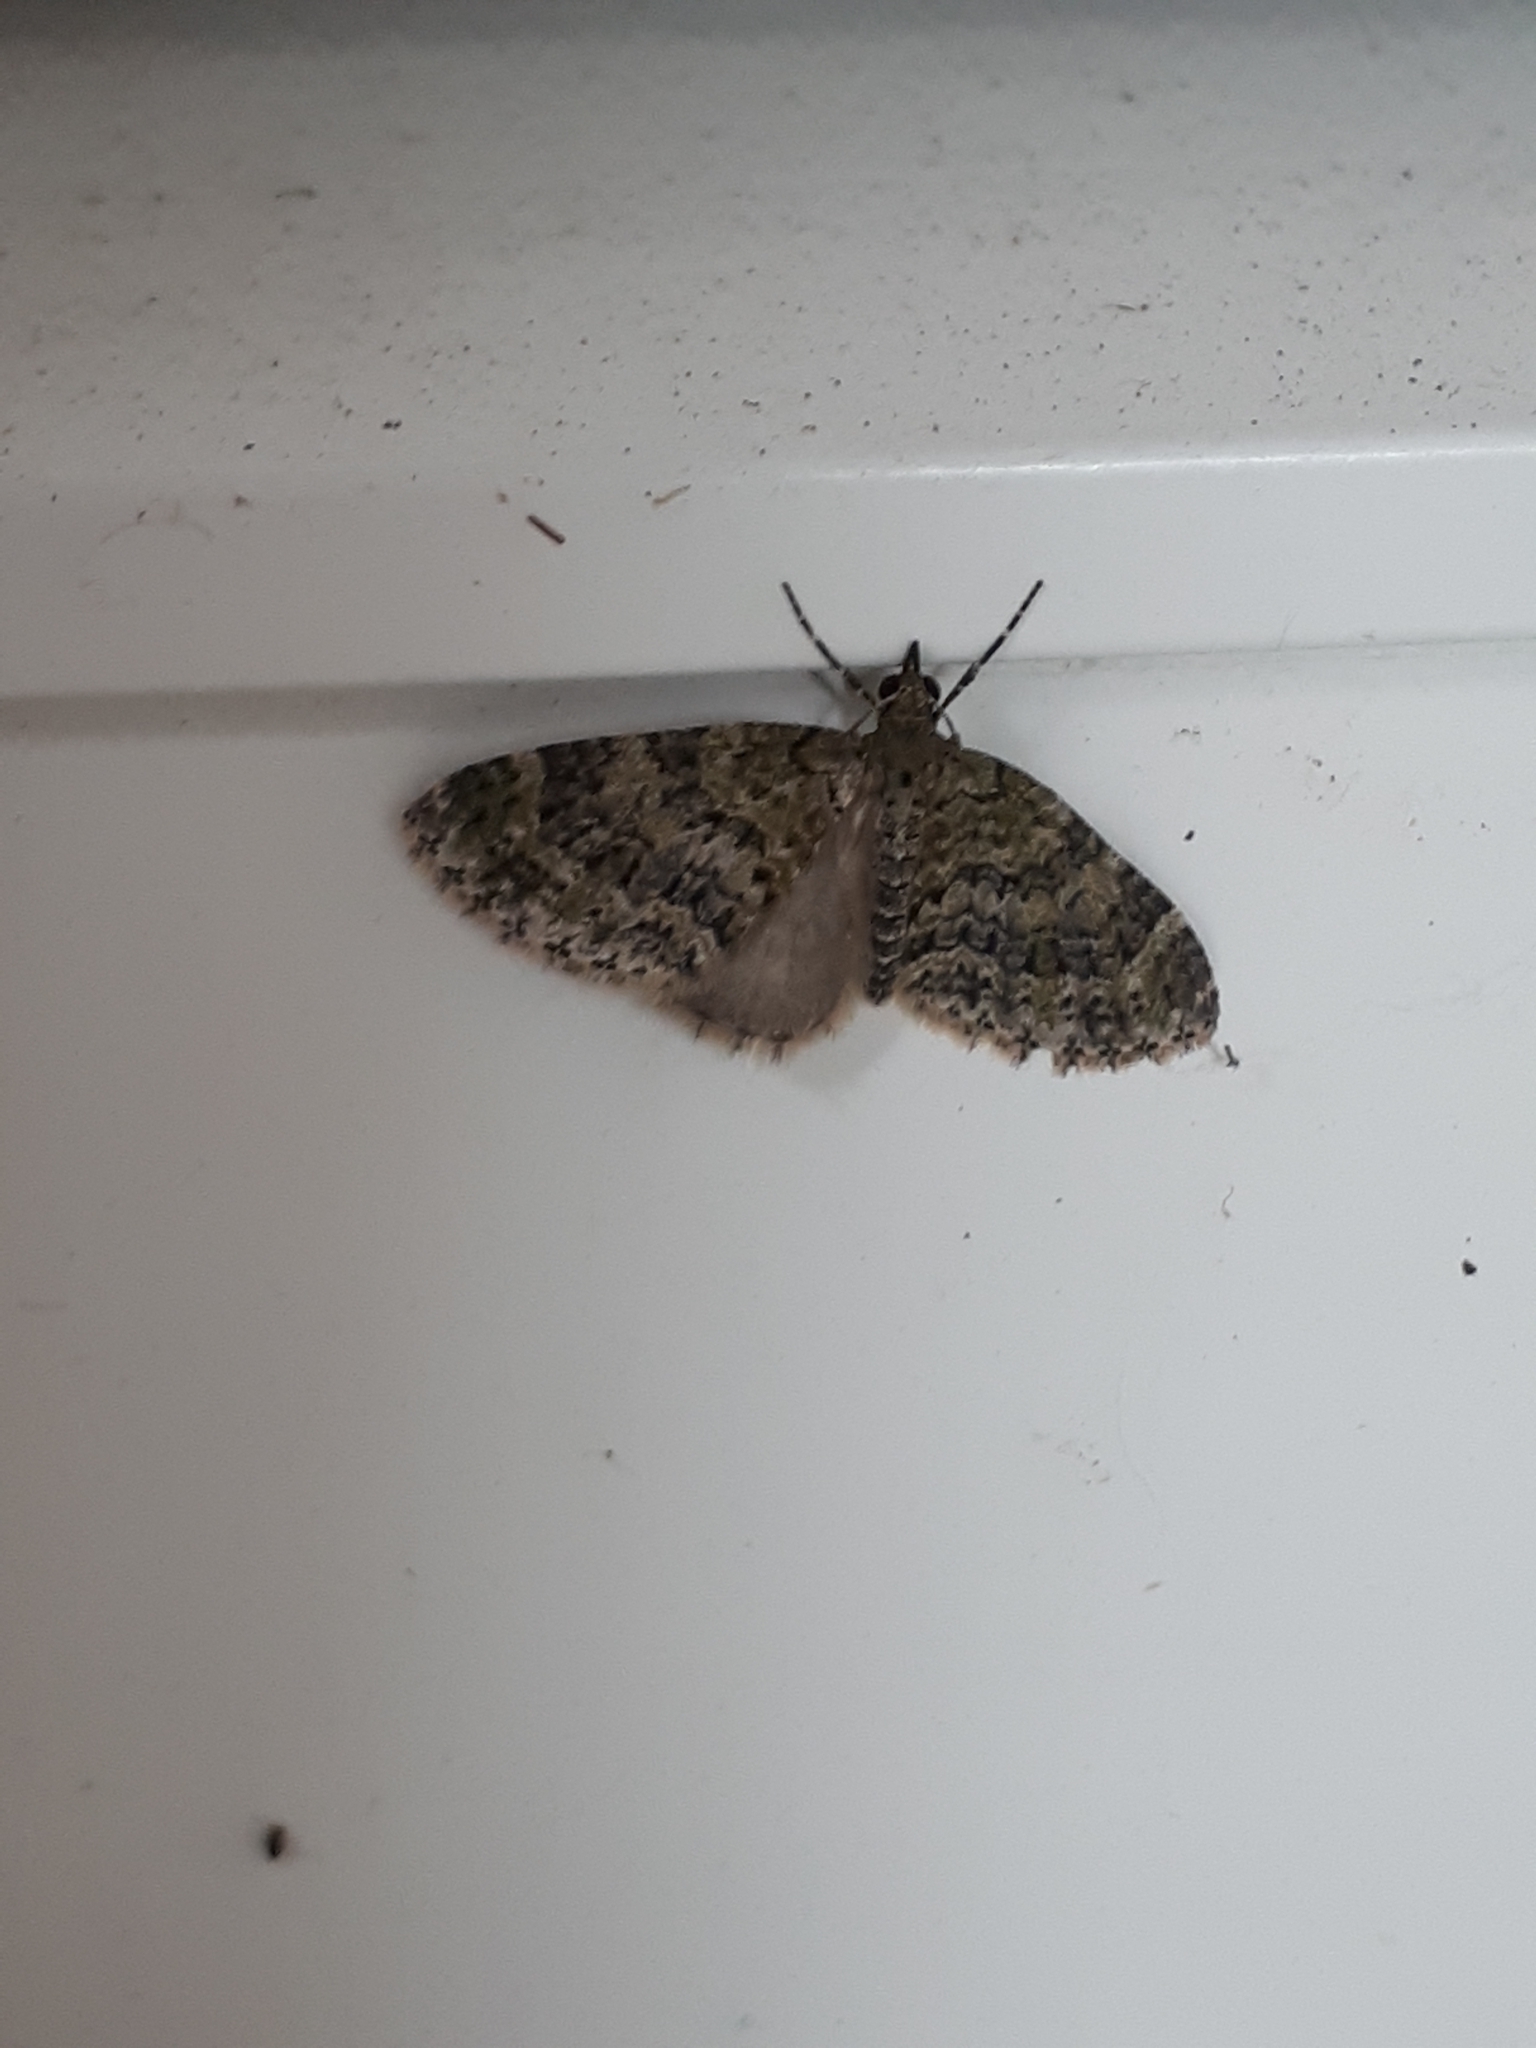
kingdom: Animalia
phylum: Arthropoda
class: Insecta
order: Lepidoptera
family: Geometridae
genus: Acasis
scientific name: Acasis viretata
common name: Yellow-barred brindle
